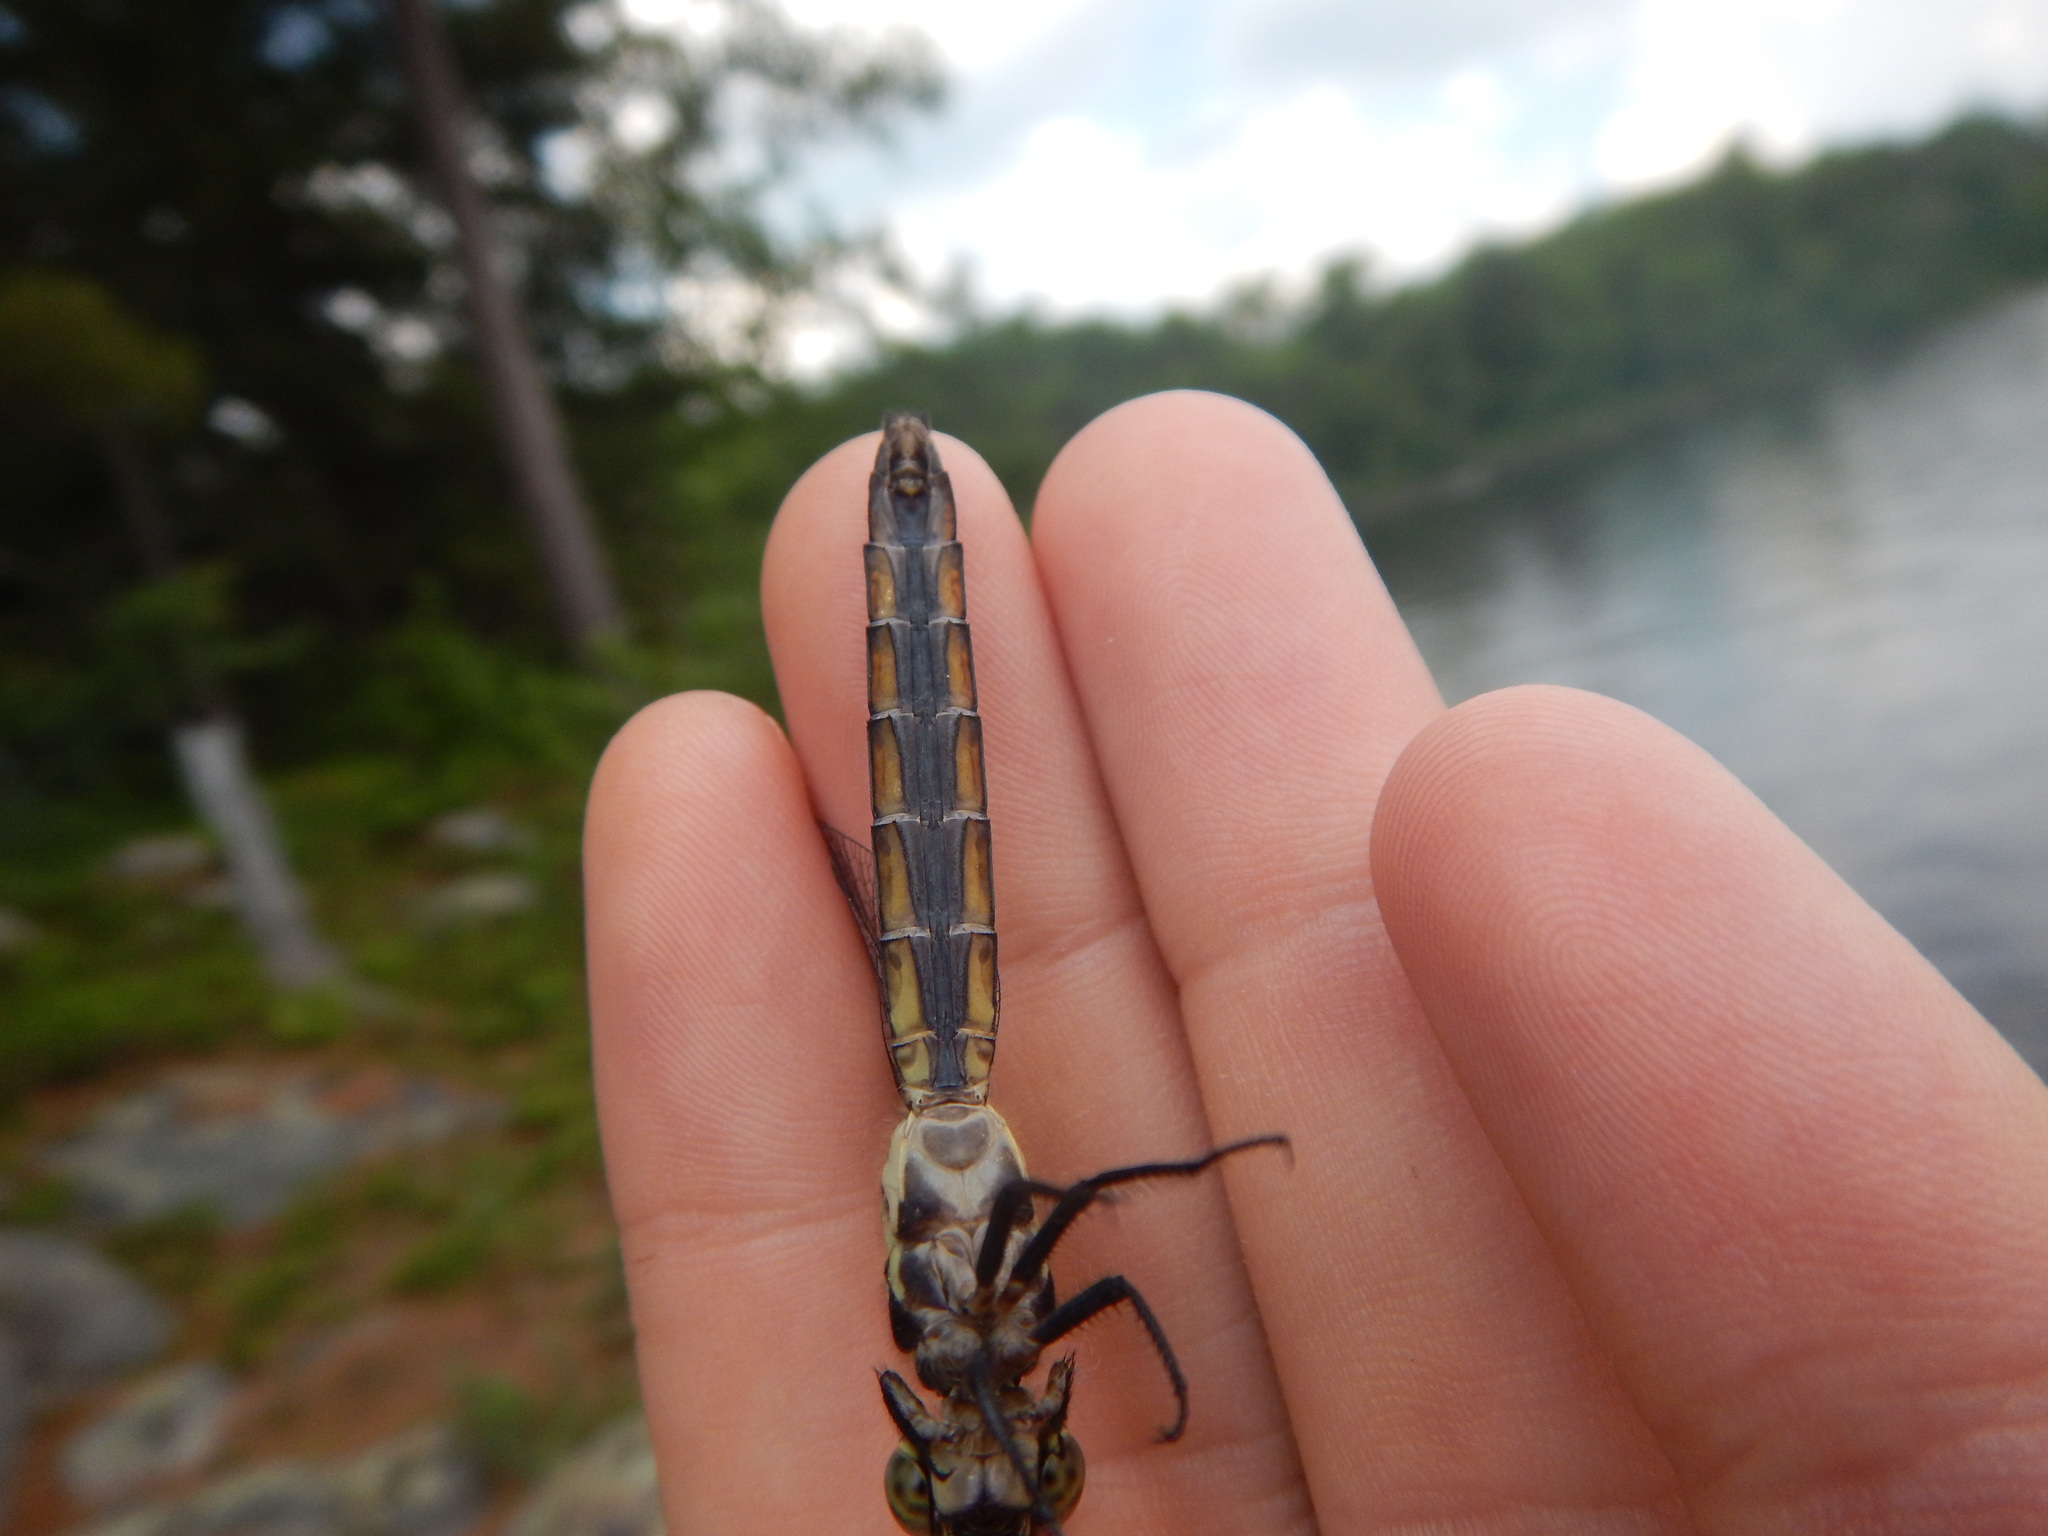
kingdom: Animalia
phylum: Arthropoda
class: Insecta
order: Odonata
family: Libellulidae
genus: Libellula
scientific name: Libellula incesta
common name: Slaty skimmer
